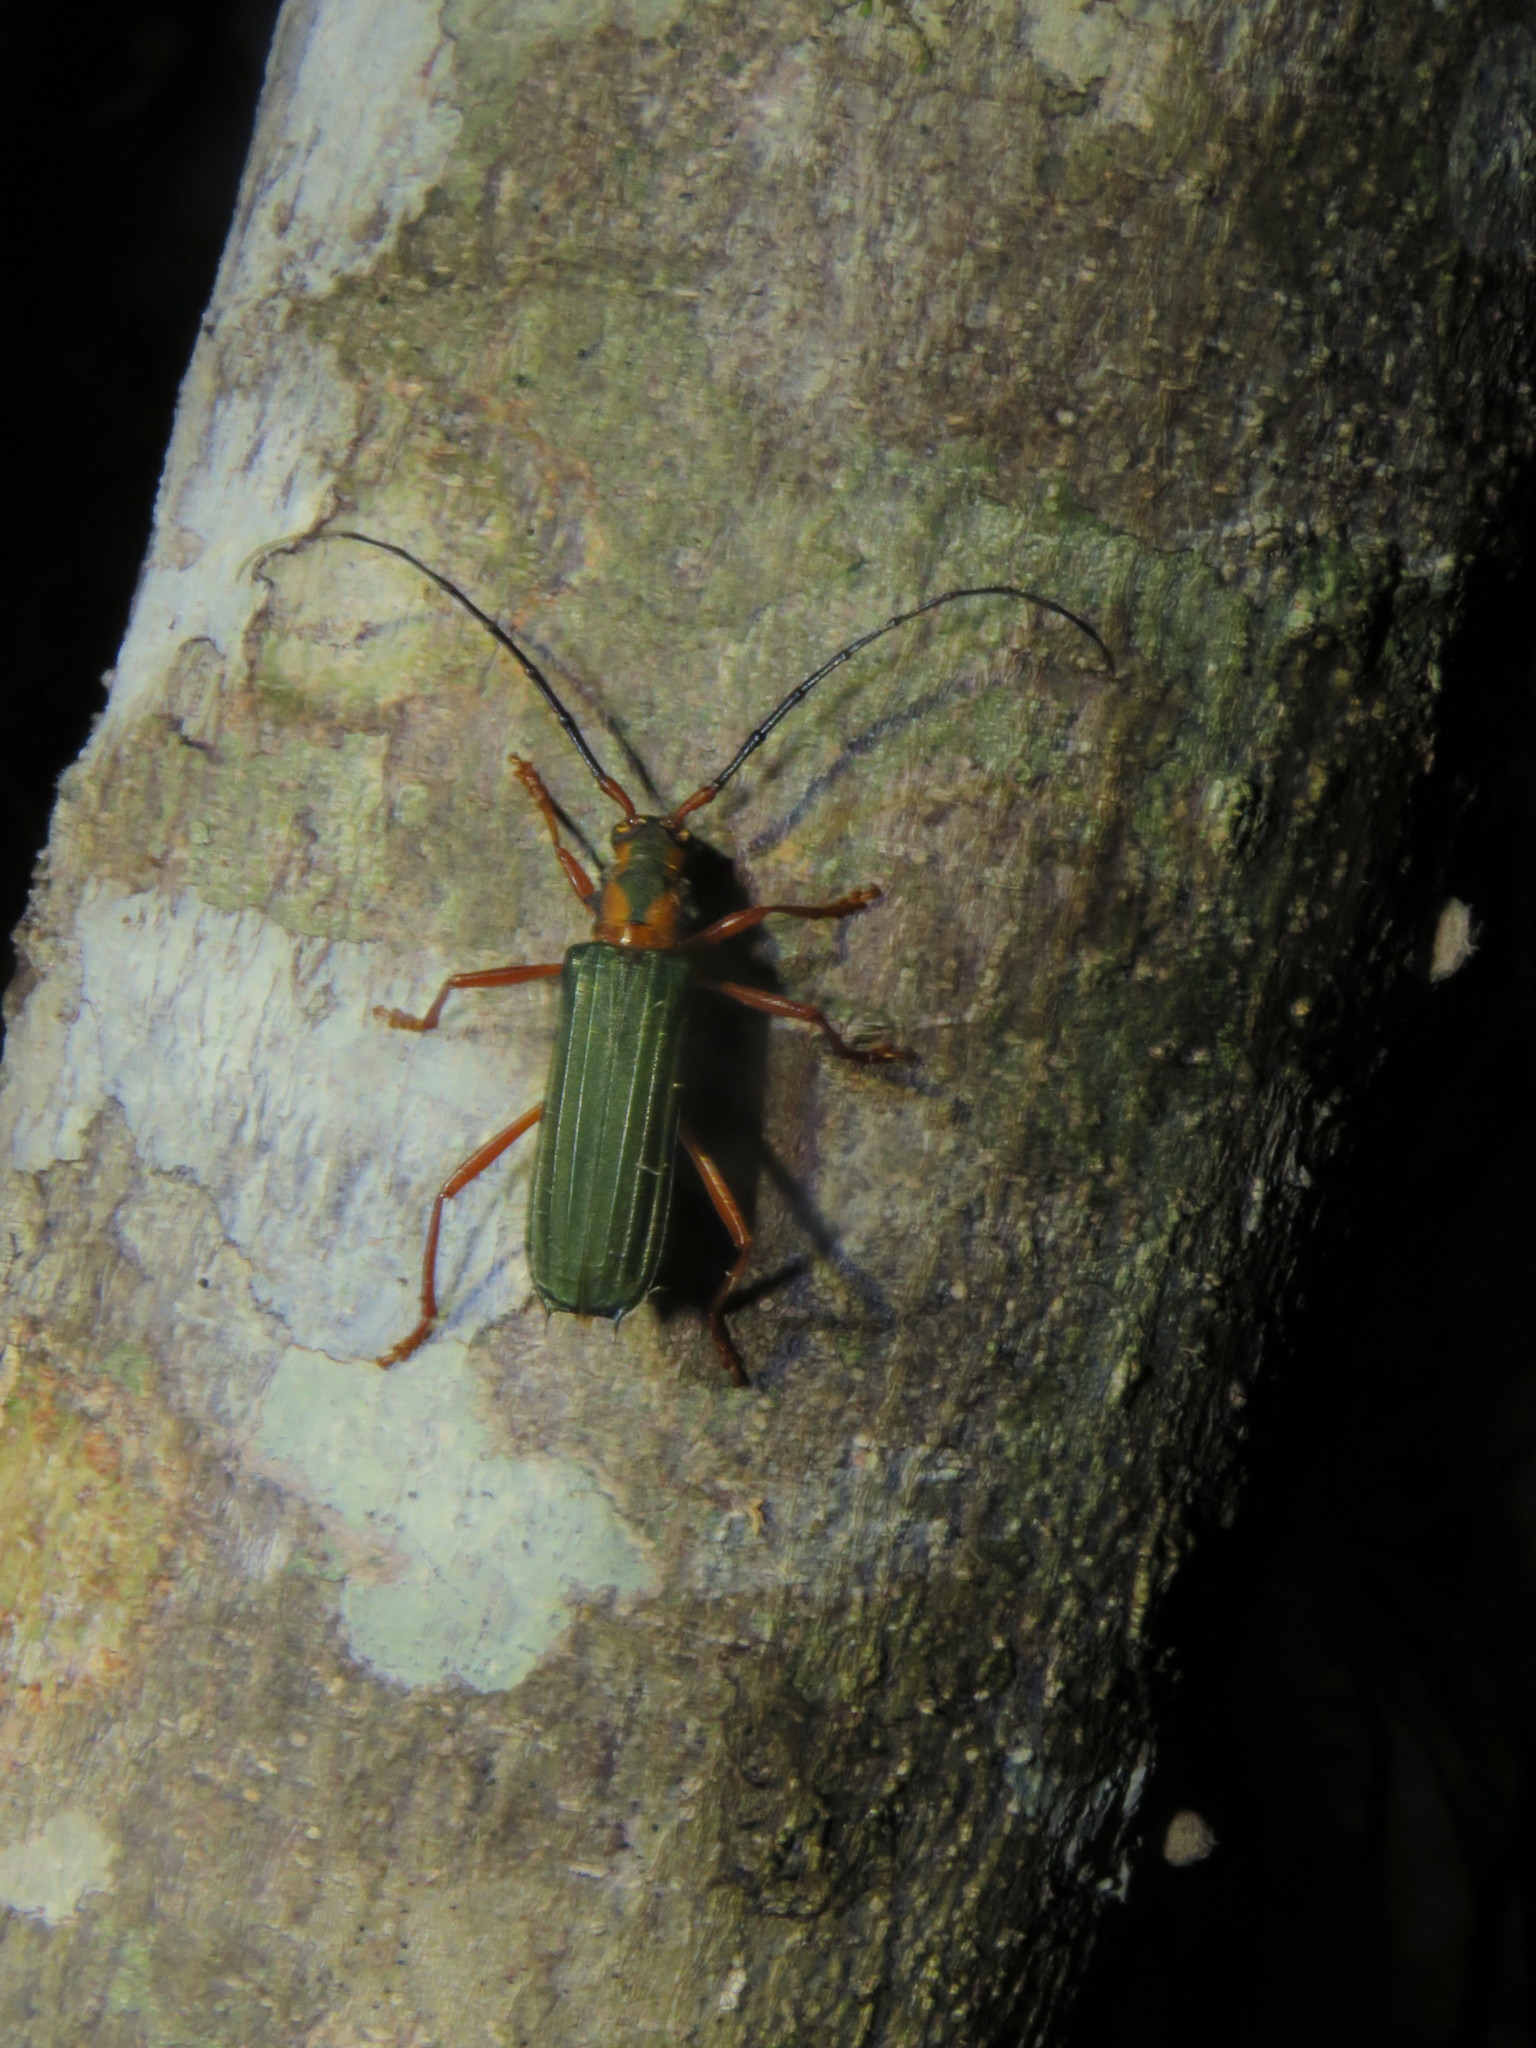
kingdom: Animalia
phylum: Arthropoda
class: Insecta
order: Coleoptera
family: Cerambycidae
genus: Chlorida
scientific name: Chlorida curta
